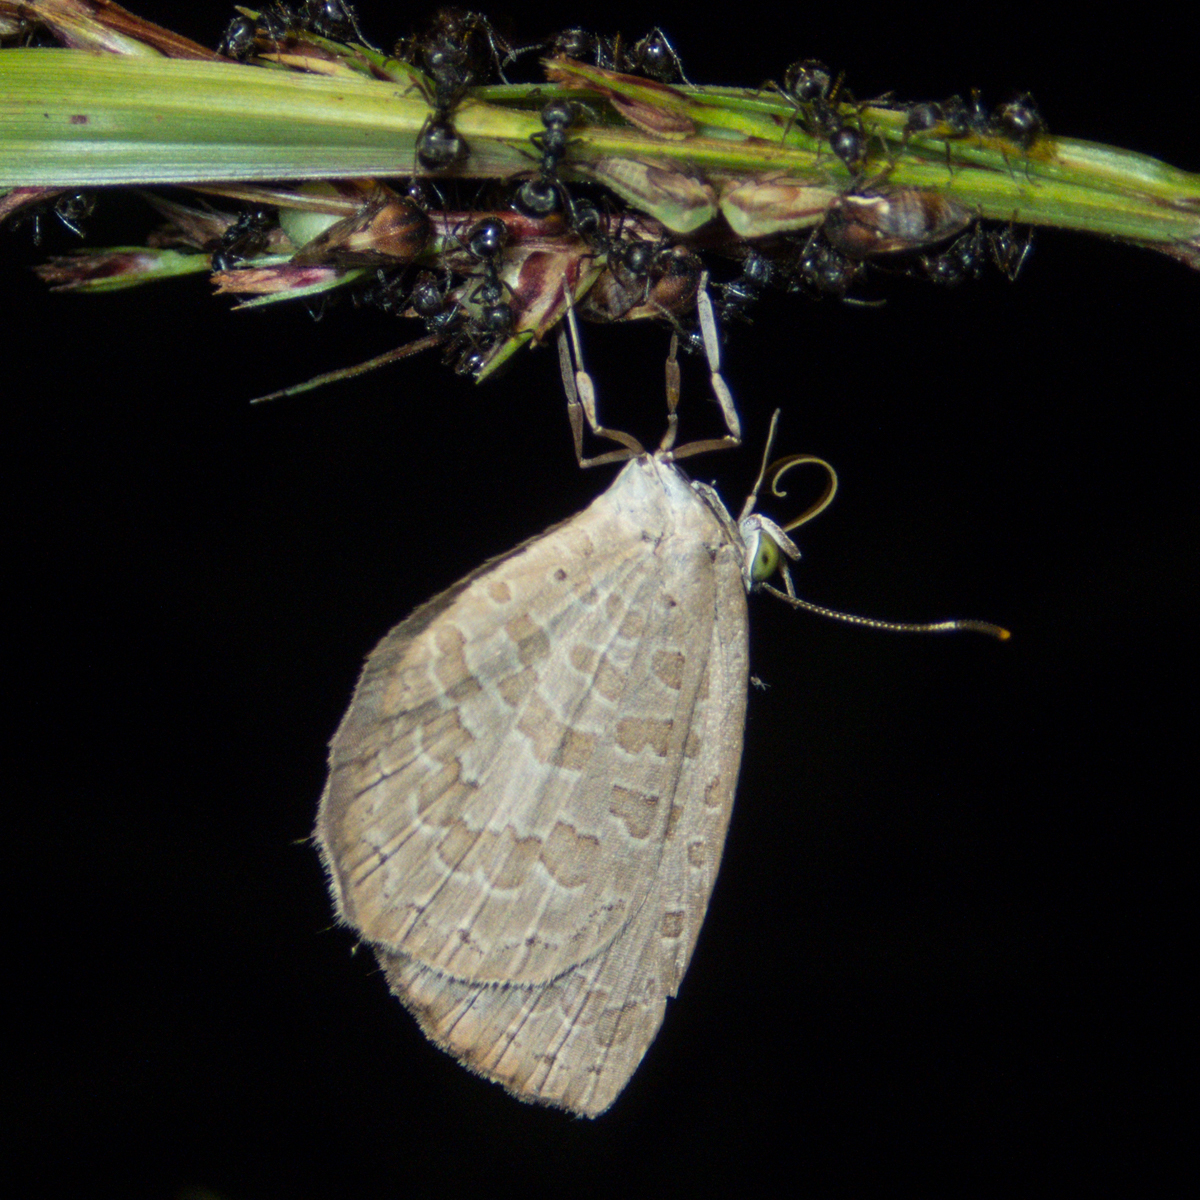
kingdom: Animalia
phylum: Arthropoda
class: Insecta
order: Lepidoptera
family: Lycaenidae
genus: Miletus
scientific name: Miletus chinensis
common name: Common brownie
